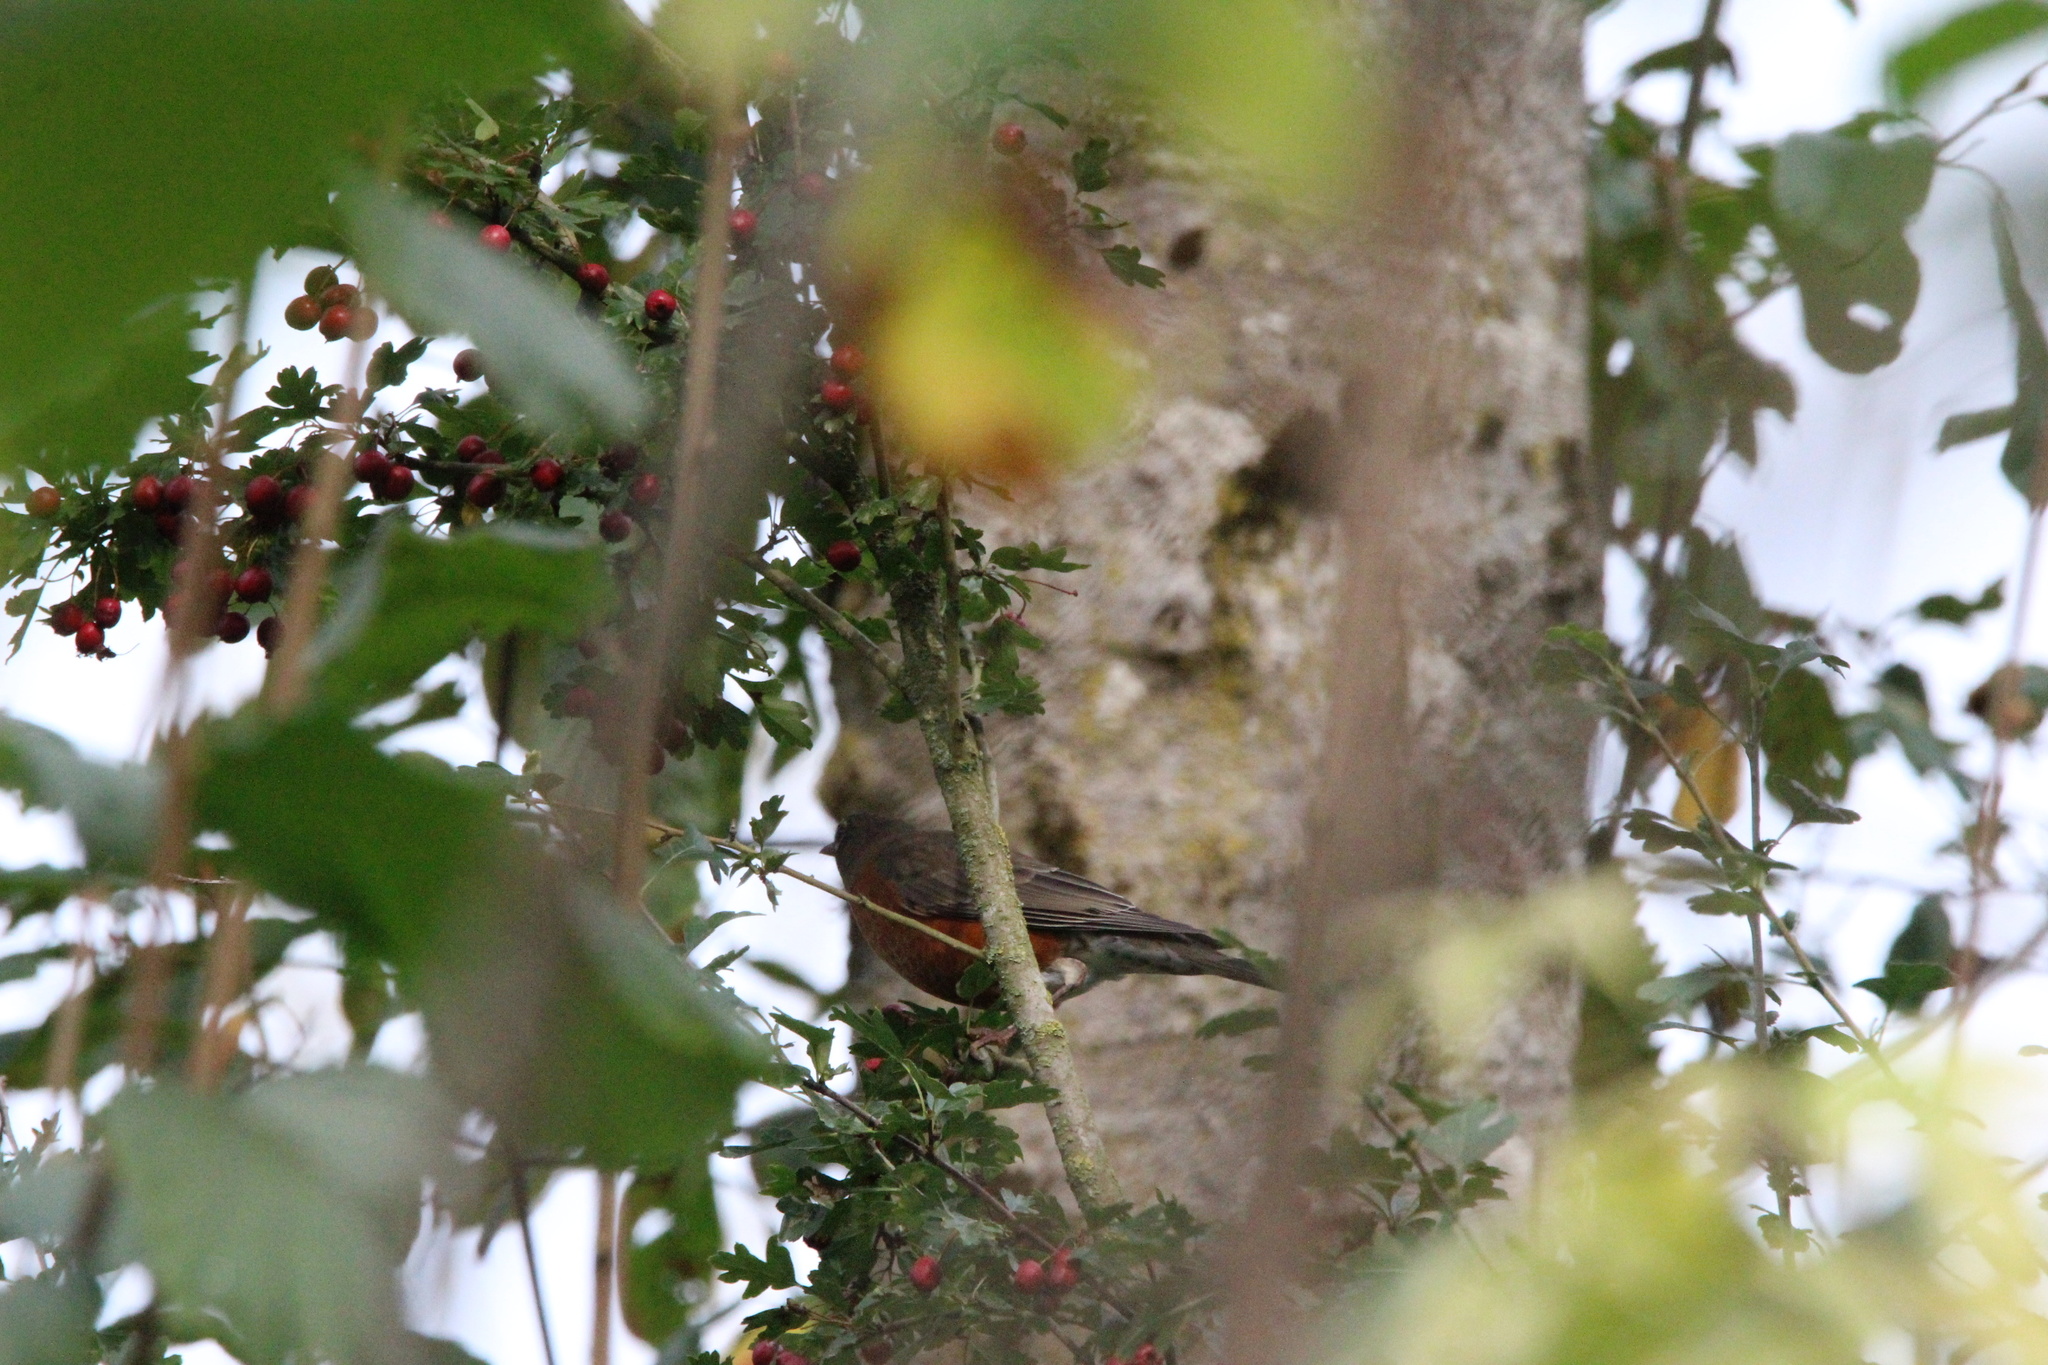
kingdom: Animalia
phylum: Chordata
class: Aves
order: Passeriformes
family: Turdidae
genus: Turdus
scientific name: Turdus migratorius
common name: American robin
